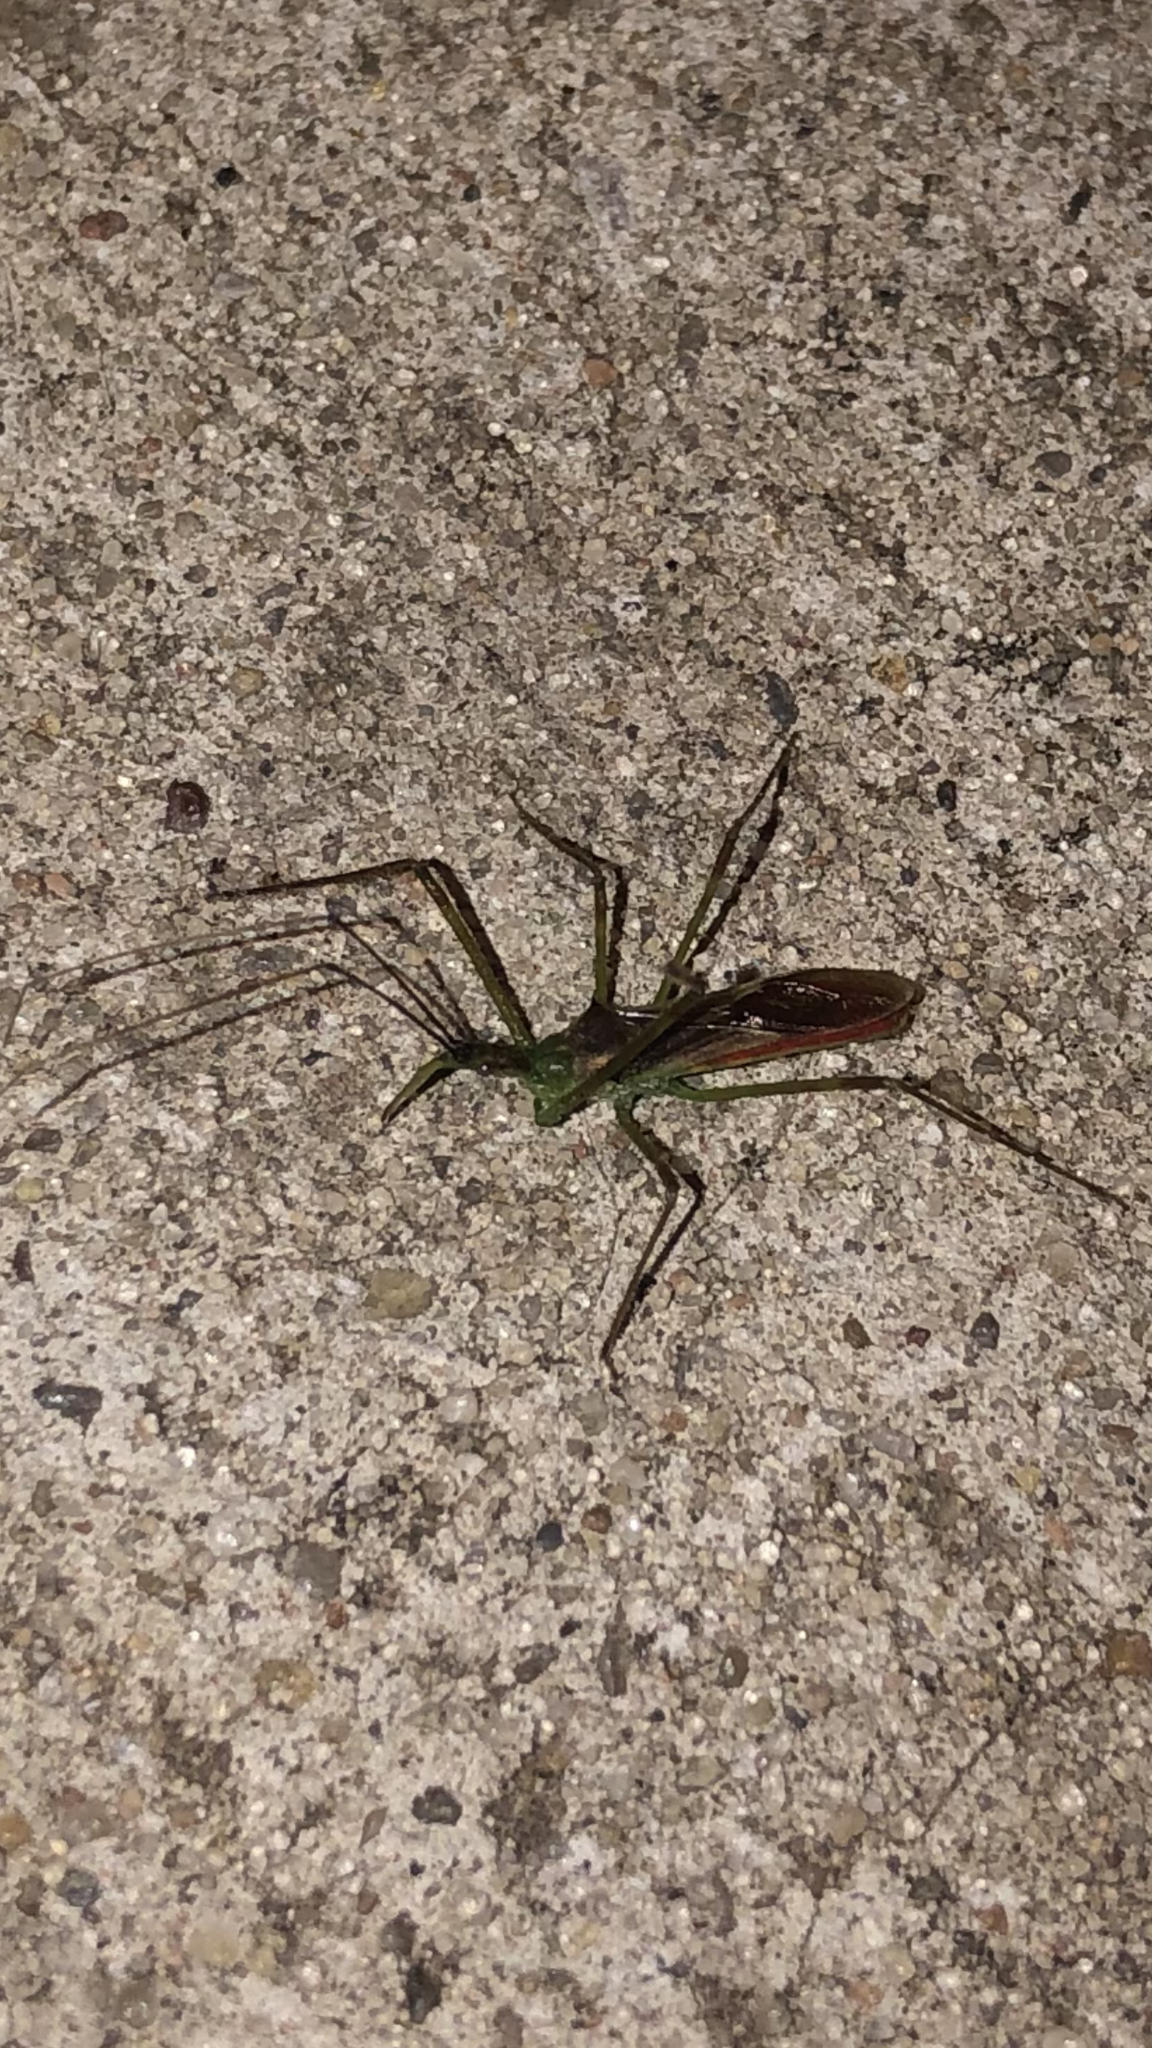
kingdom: Animalia
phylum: Arthropoda
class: Insecta
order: Hemiptera
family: Reduviidae
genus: Zelus
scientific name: Zelus luridus
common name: Pale green assassin bug
